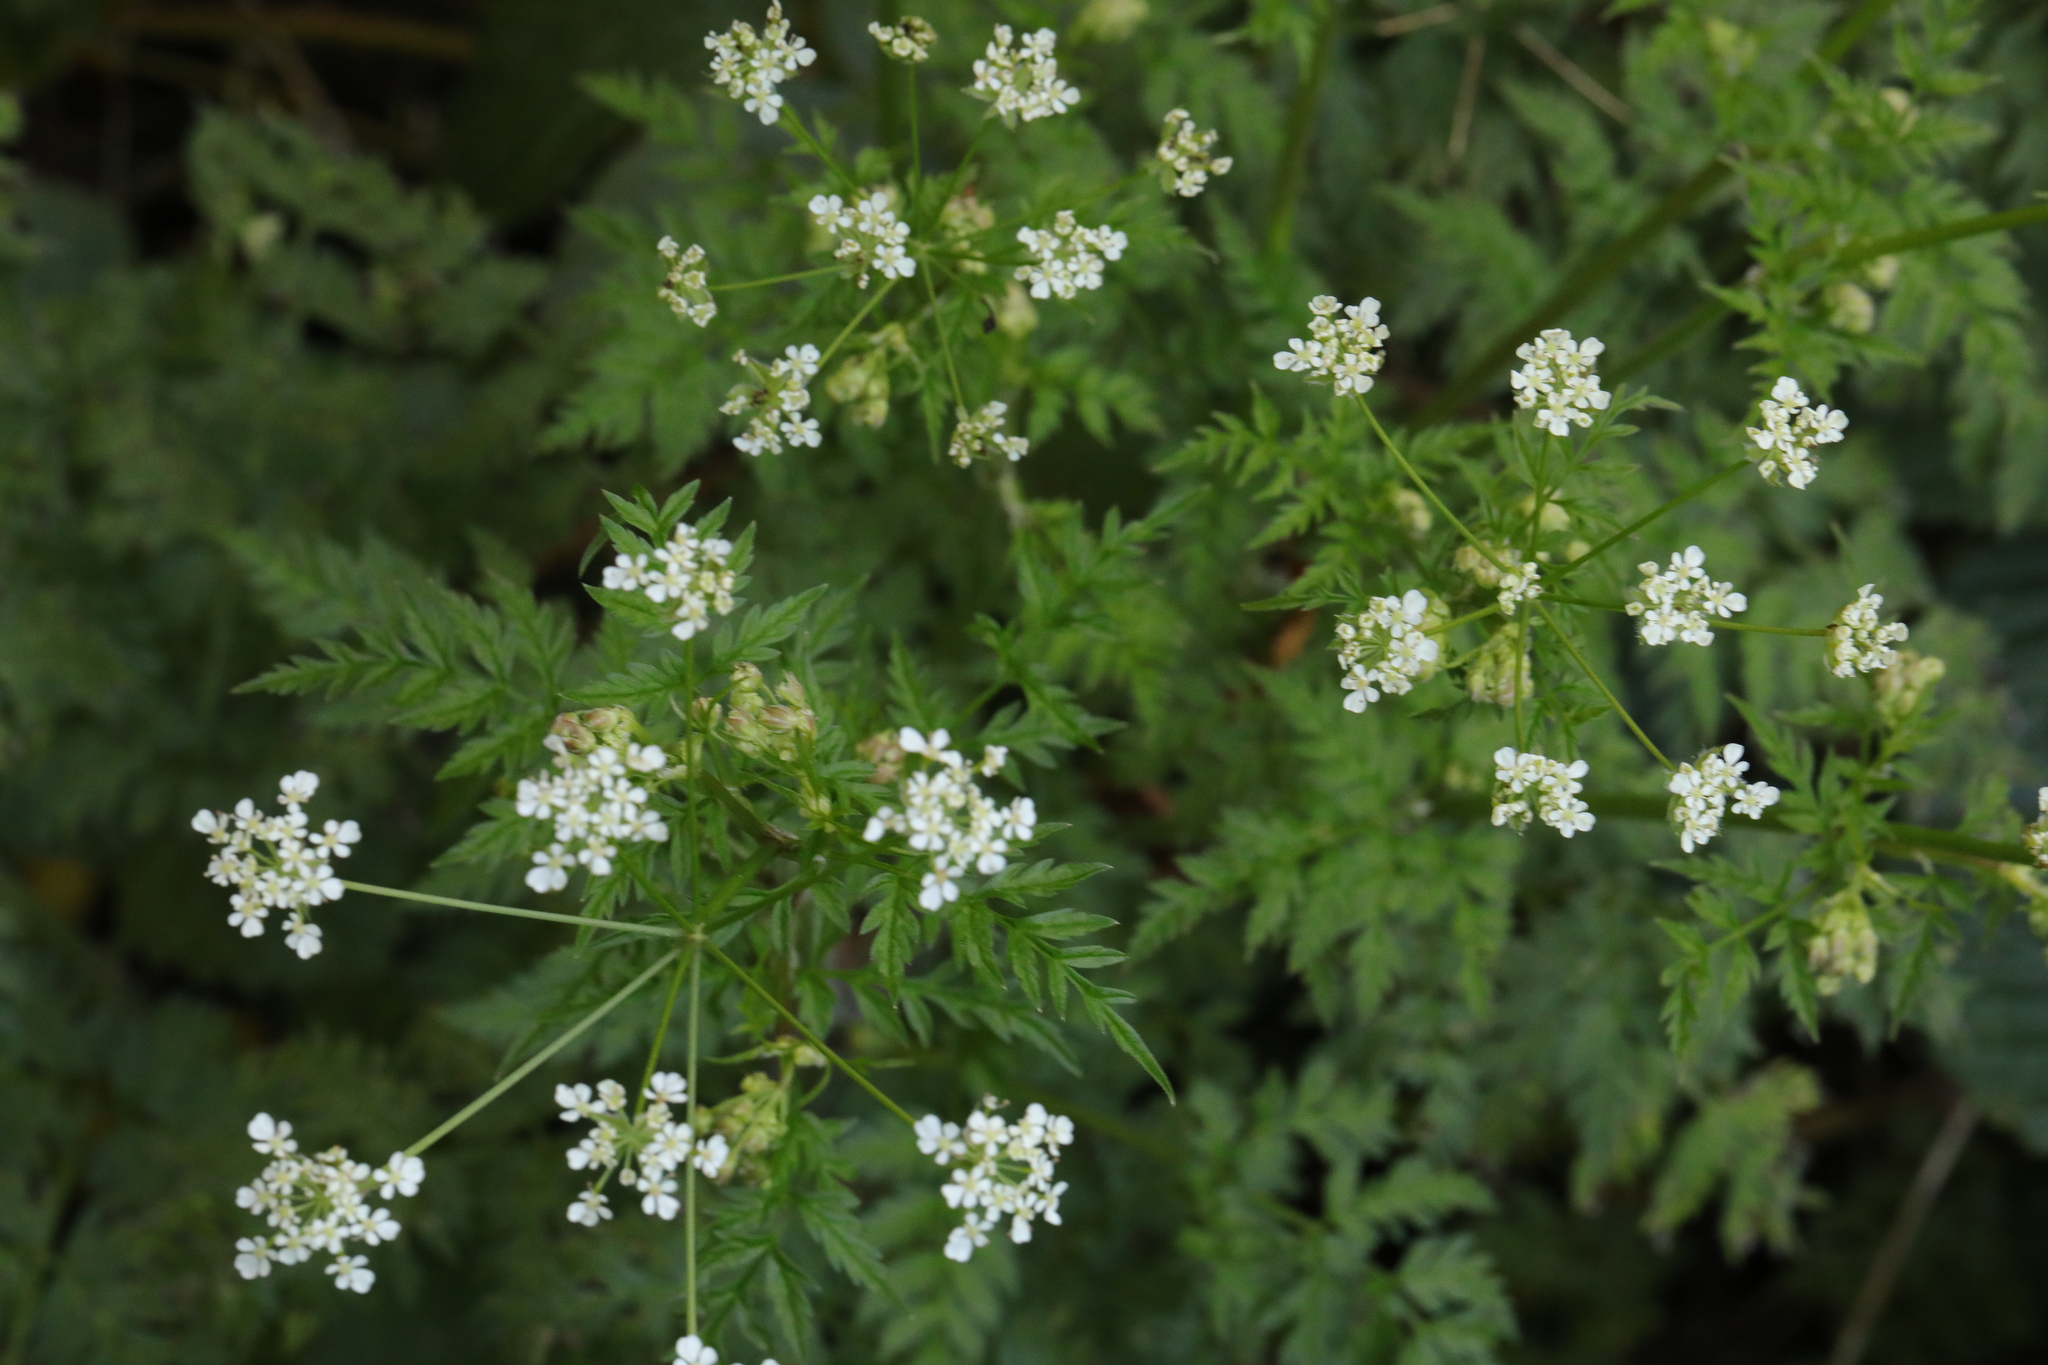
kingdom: Plantae
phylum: Tracheophyta
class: Magnoliopsida
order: Apiales
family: Apiaceae
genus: Anthriscus
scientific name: Anthriscus sylvestris
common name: Cow parsley
